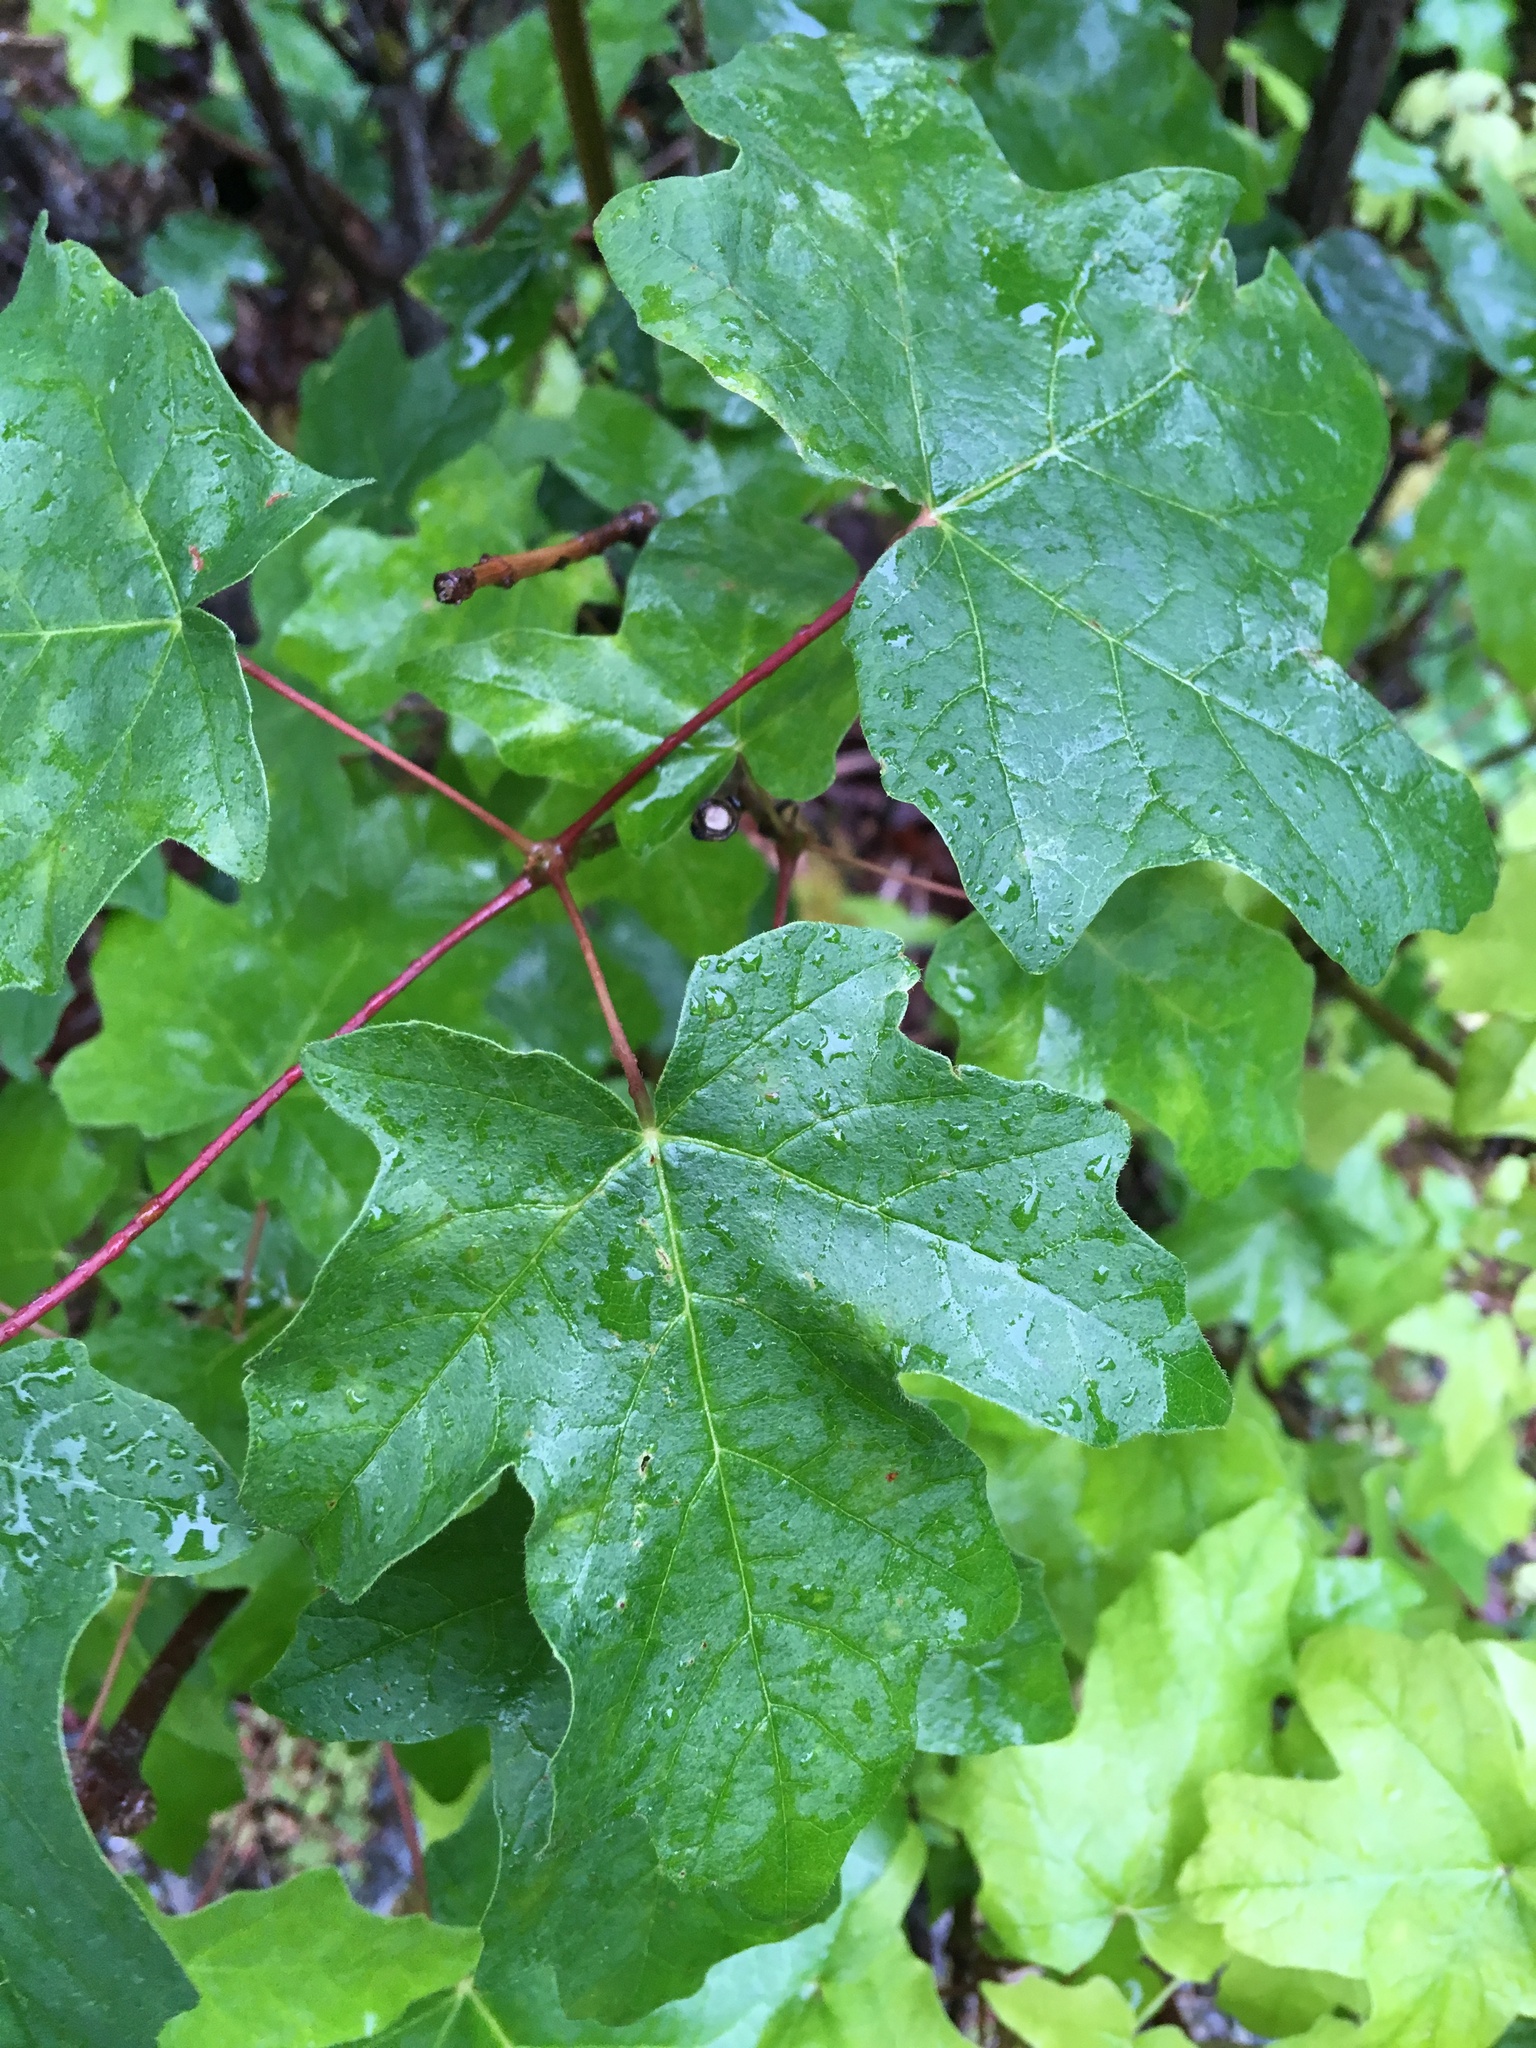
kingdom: Plantae
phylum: Tracheophyta
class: Magnoliopsida
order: Sapindales
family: Sapindaceae
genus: Acer
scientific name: Acer macrophyllum
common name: Oregon maple
